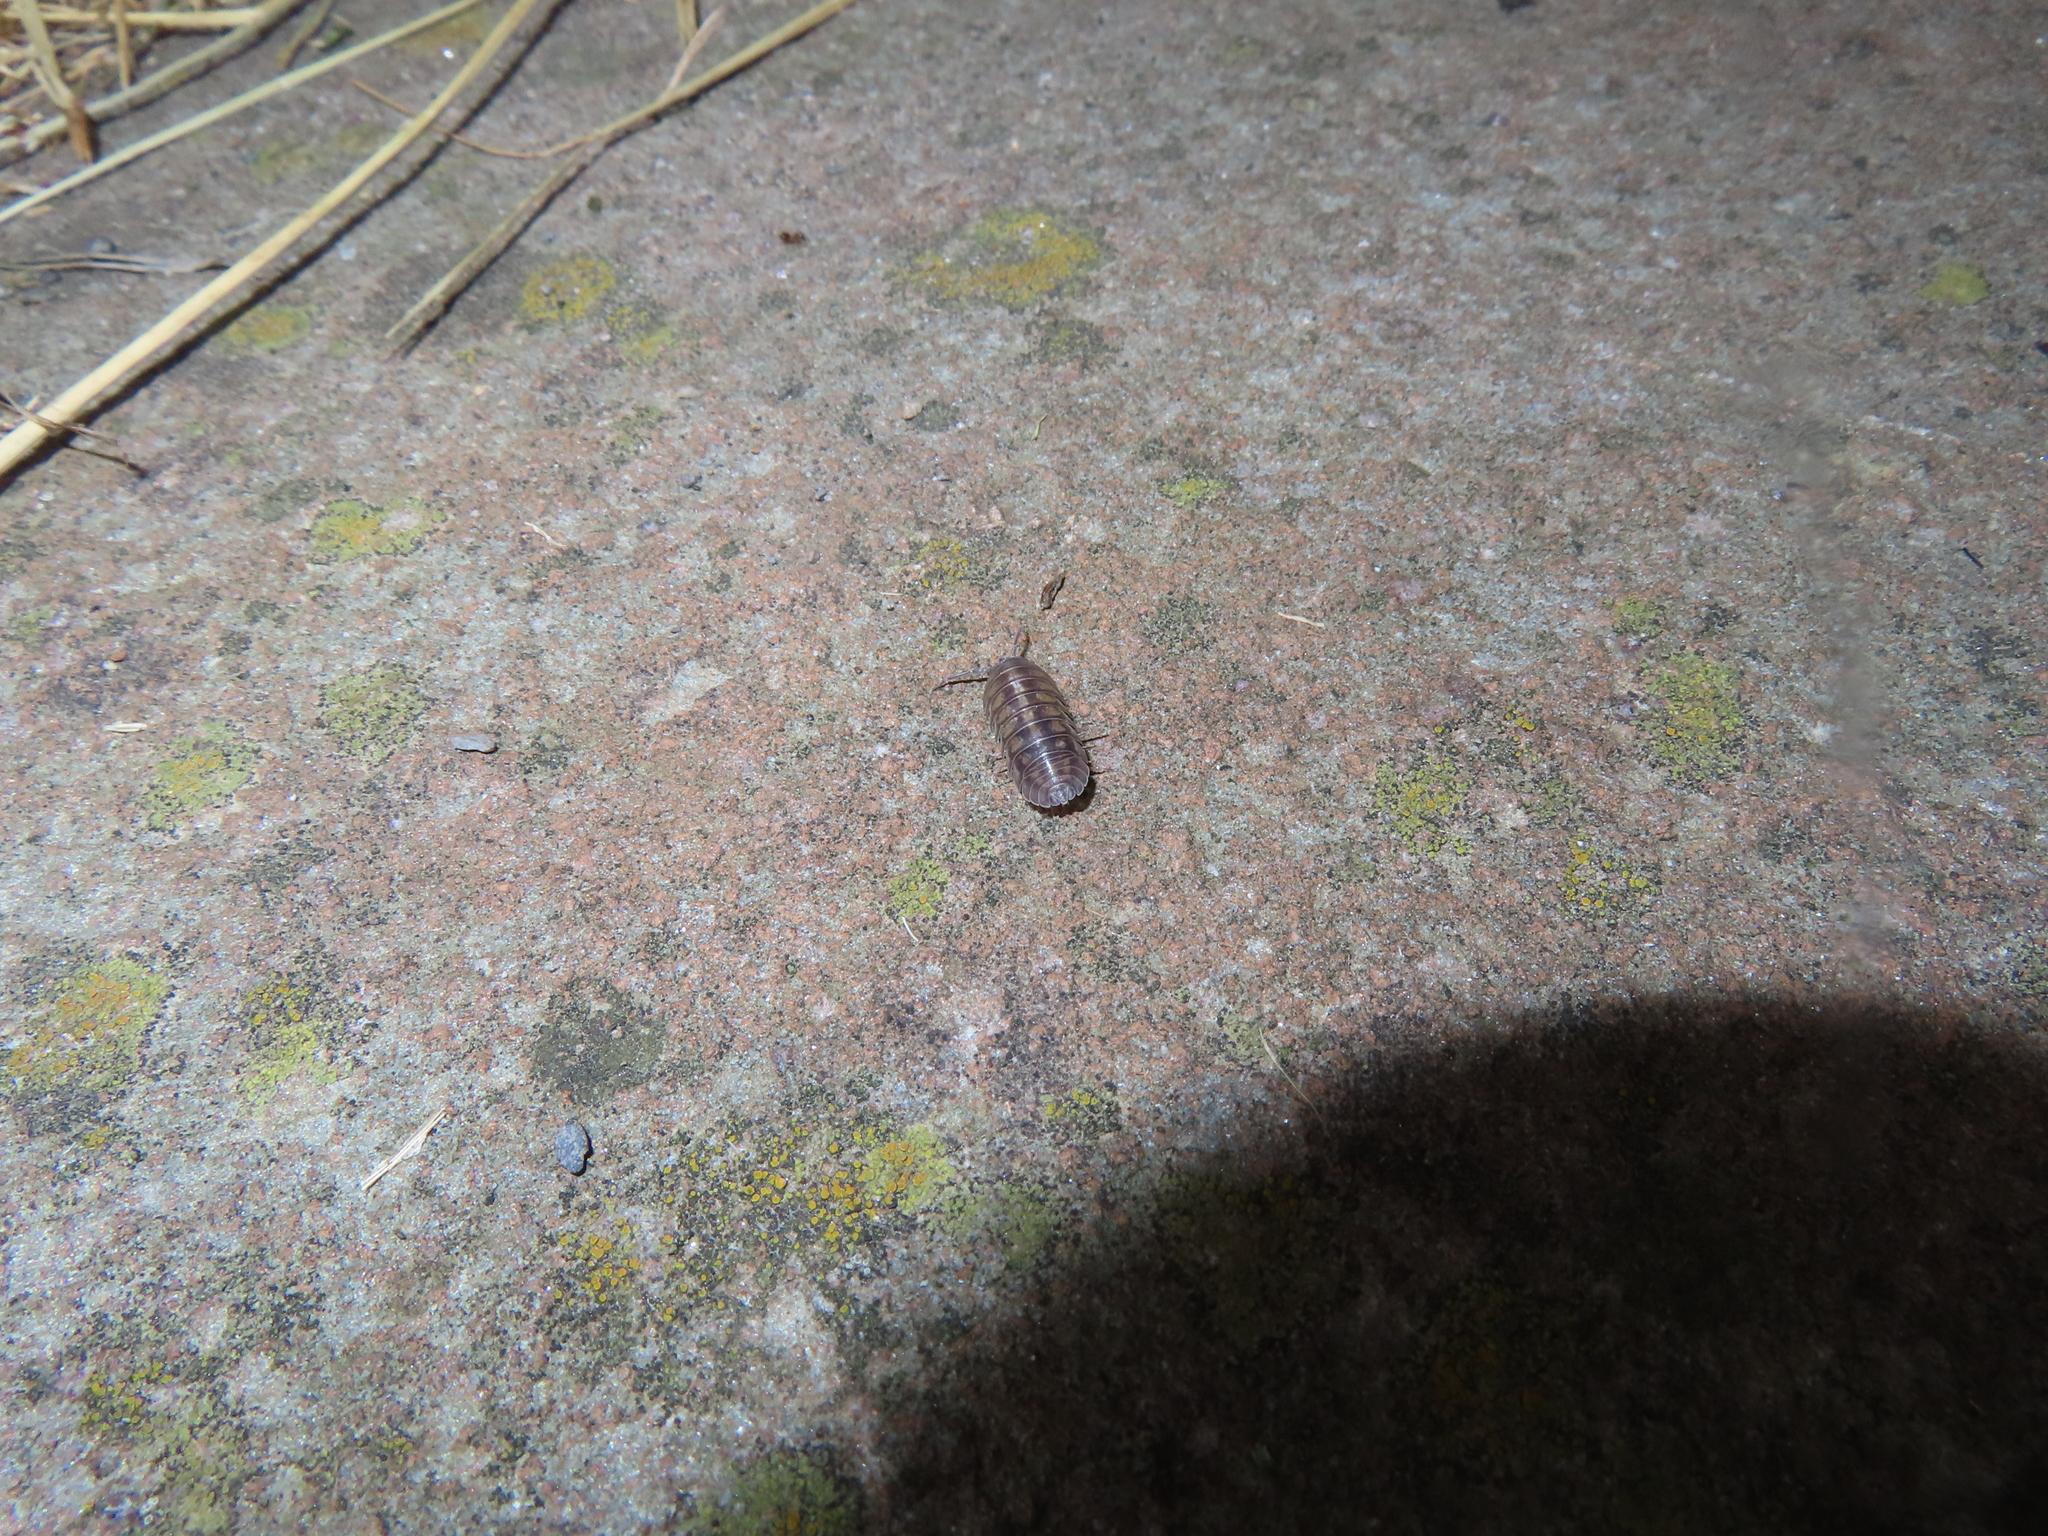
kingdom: Animalia
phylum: Arthropoda
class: Malacostraca
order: Isopoda
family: Armadillidiidae
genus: Armadillidium
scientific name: Armadillidium nasatum
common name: Isopod
